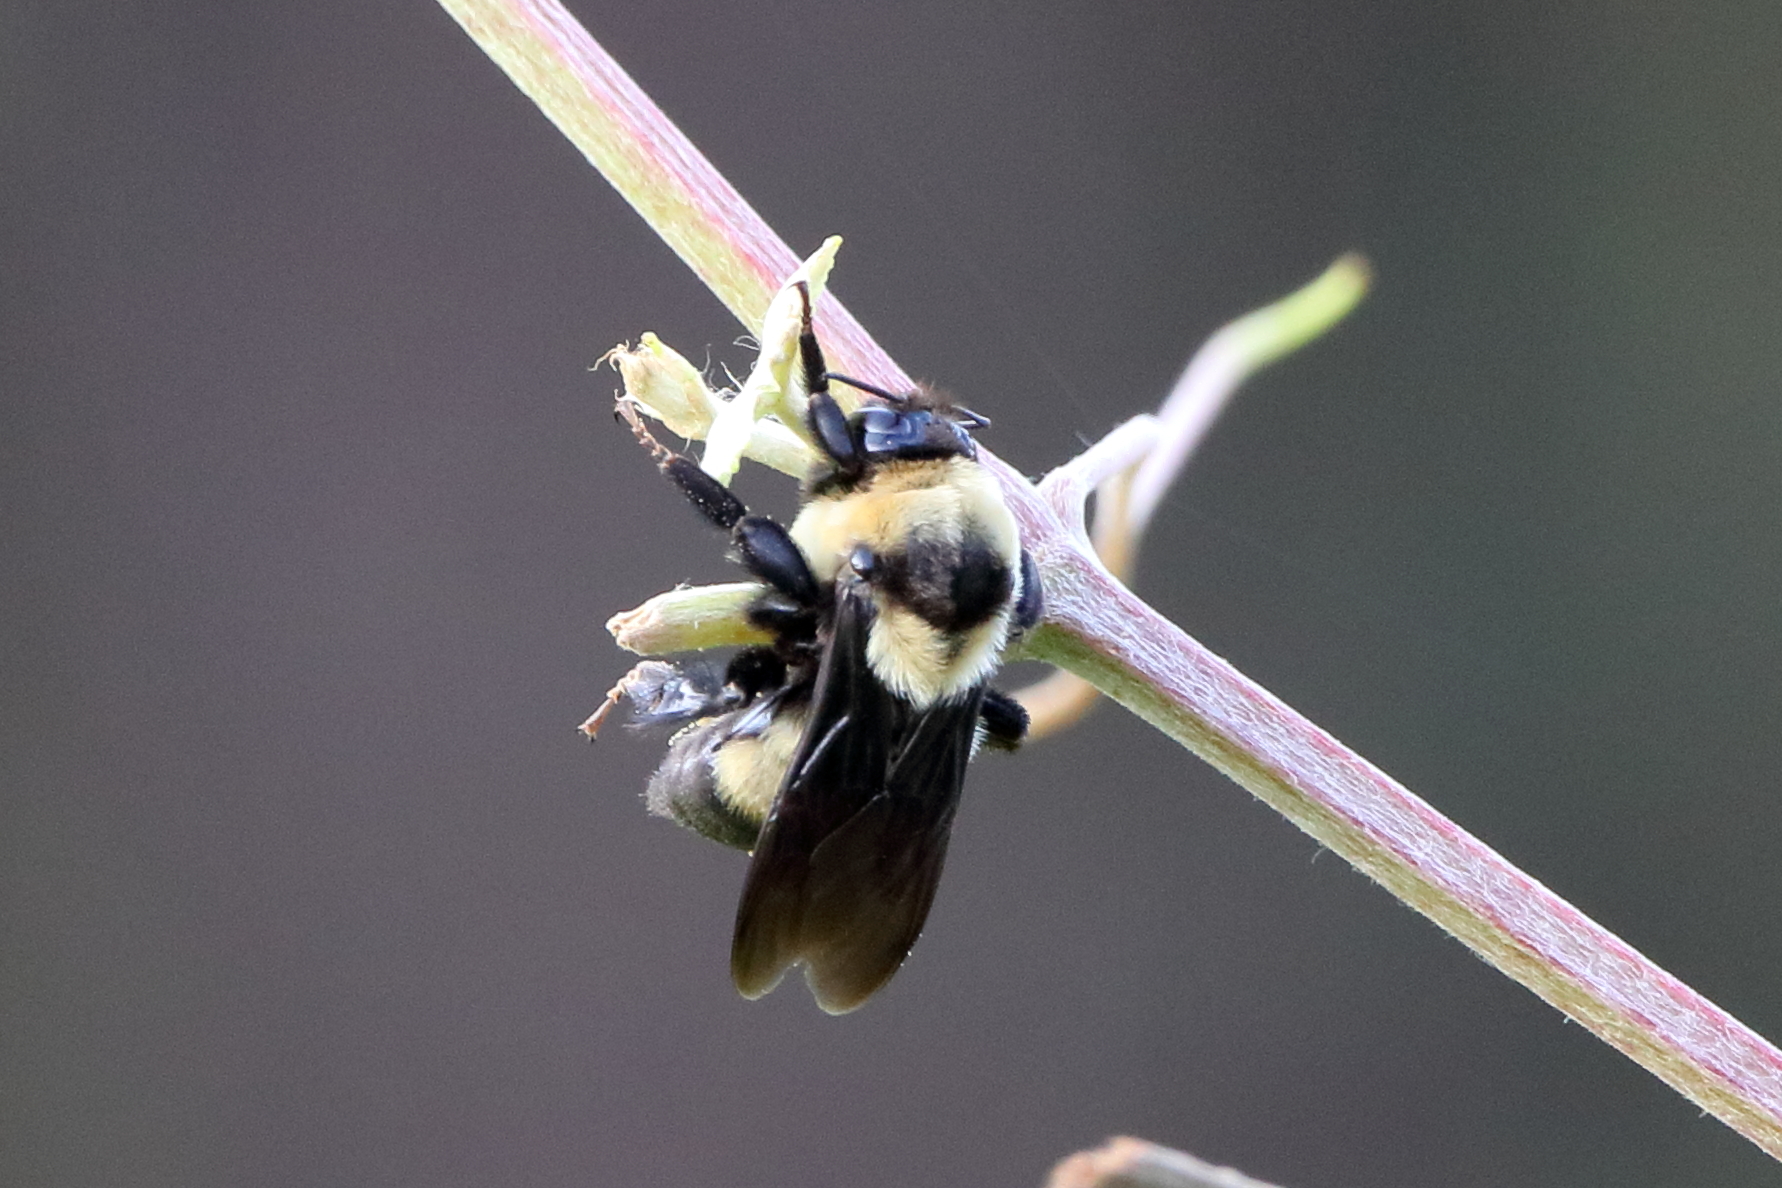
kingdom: Animalia
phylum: Arthropoda
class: Insecta
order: Hymenoptera
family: Apidae
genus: Bombus
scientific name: Bombus fraternus
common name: Southern plains bumble bee
